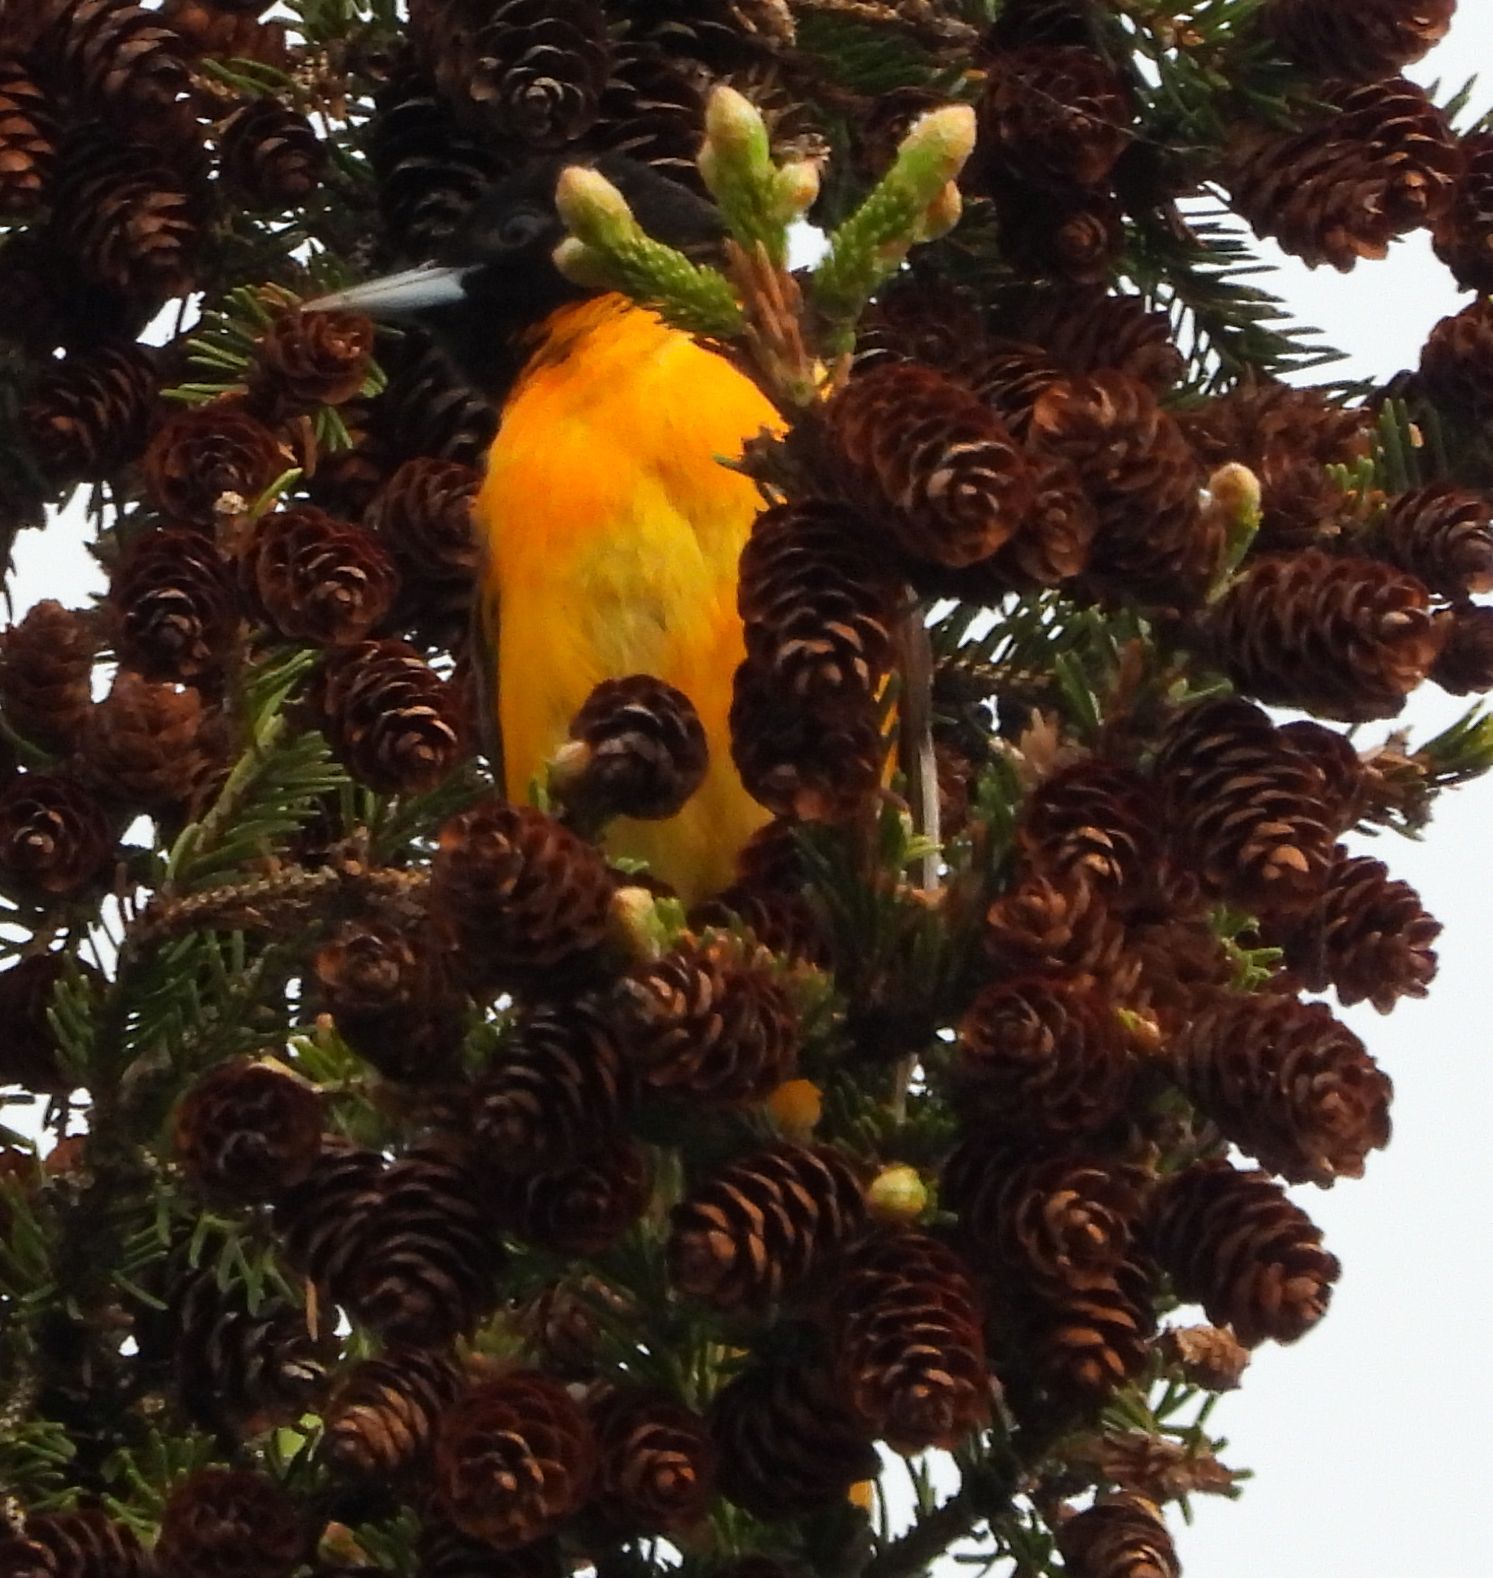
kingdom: Animalia
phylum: Chordata
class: Aves
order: Passeriformes
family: Icteridae
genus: Icterus
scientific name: Icterus galbula
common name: Baltimore oriole
